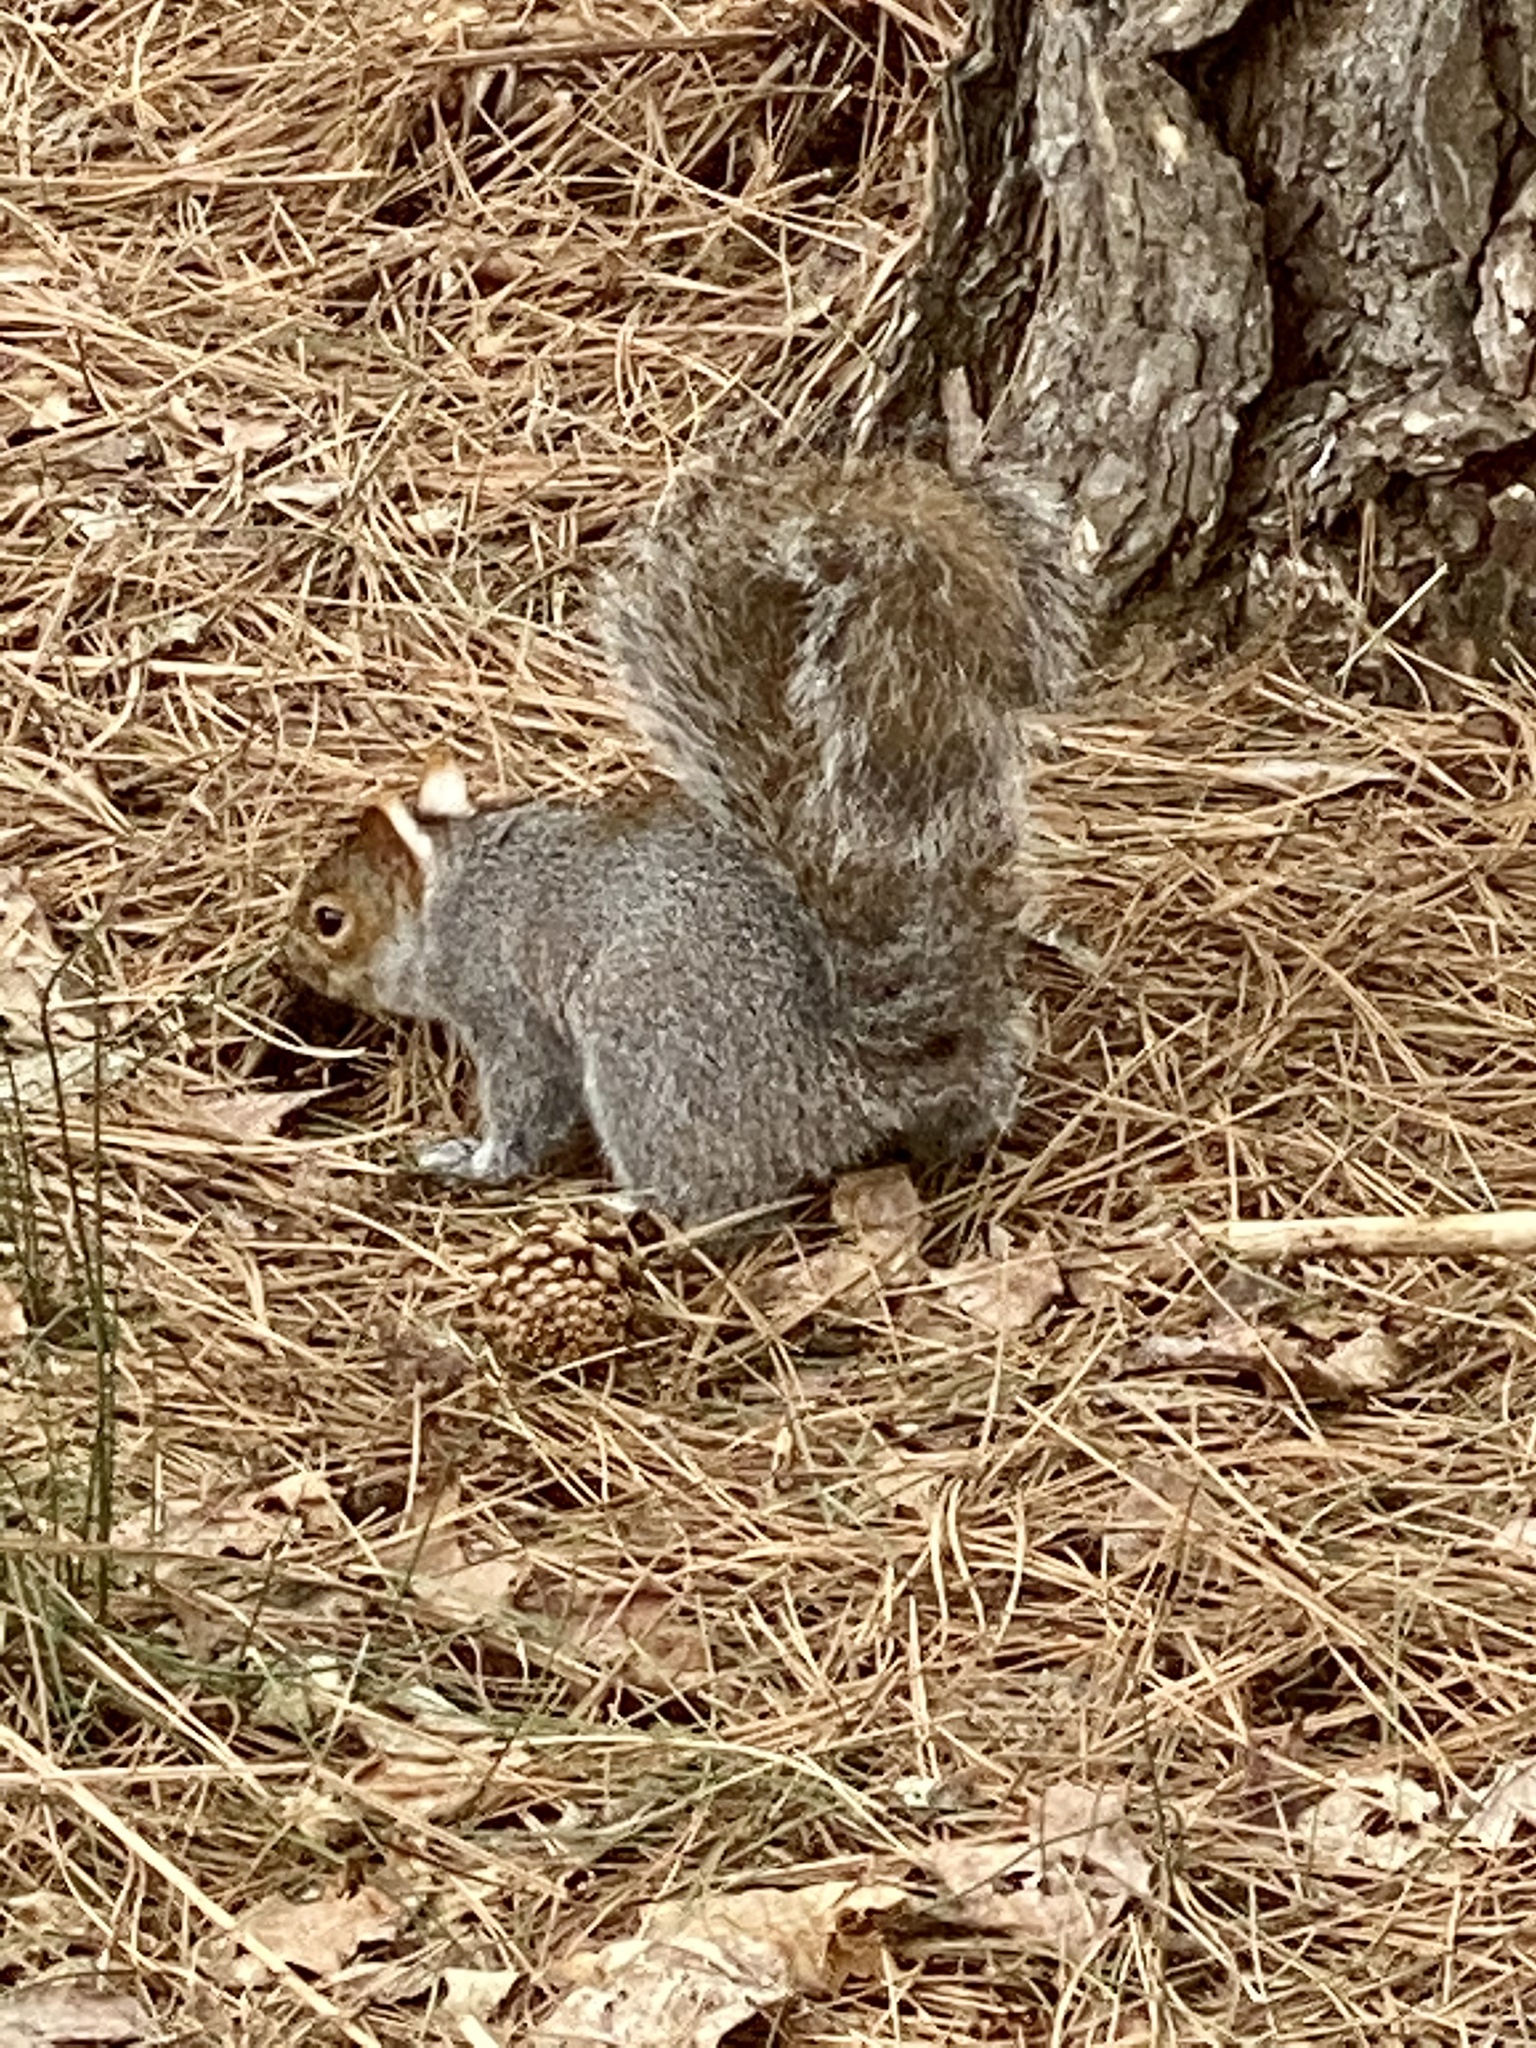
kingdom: Animalia
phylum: Chordata
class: Mammalia
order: Rodentia
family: Sciuridae
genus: Sciurus
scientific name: Sciurus carolinensis
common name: Eastern gray squirrel
